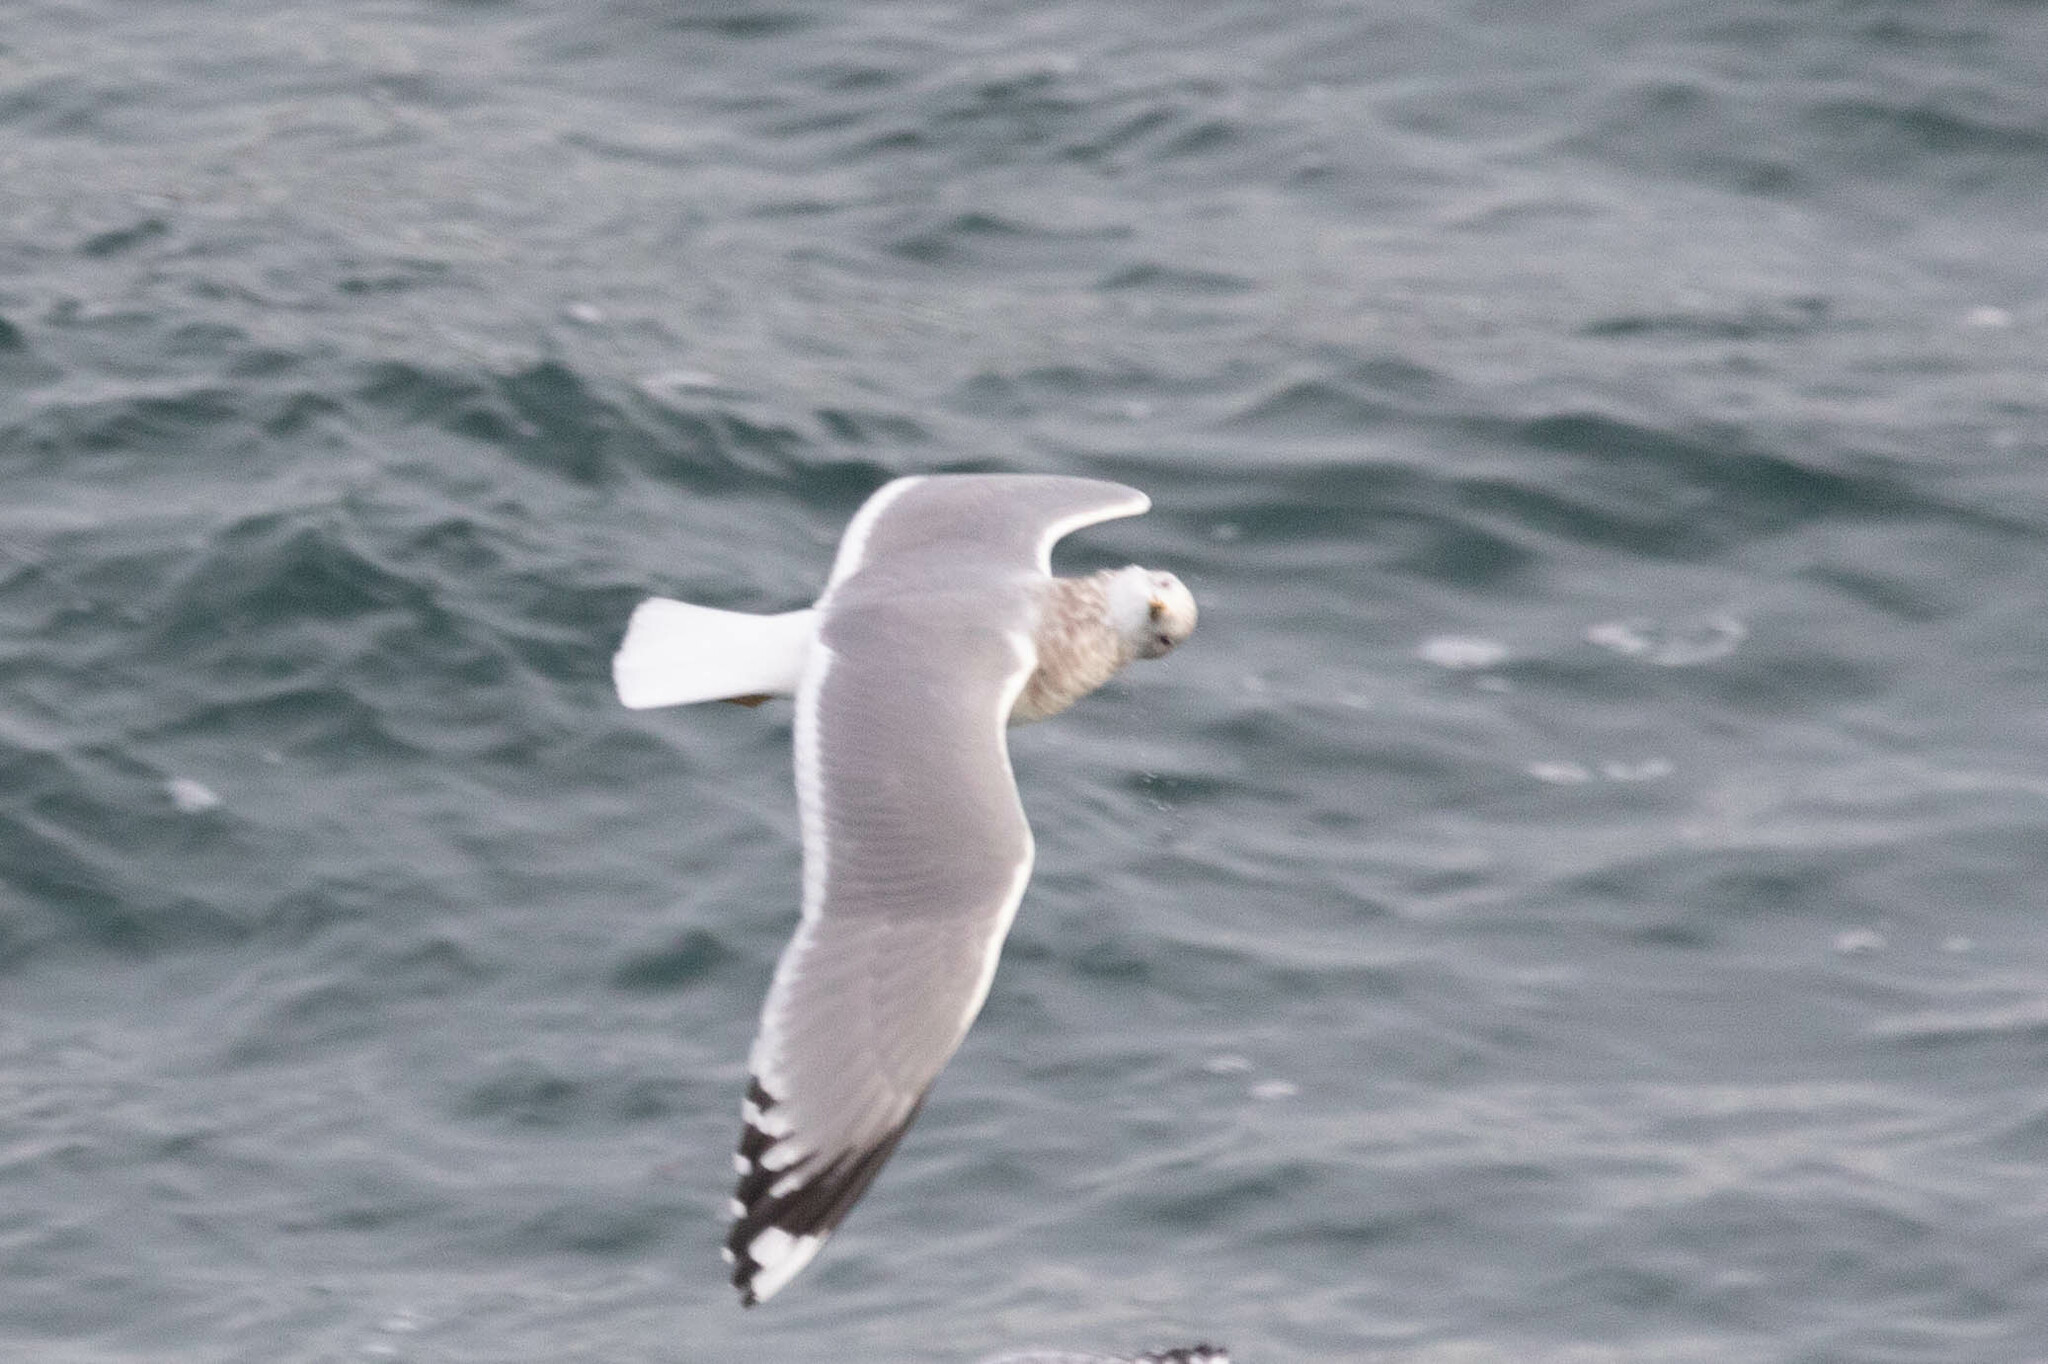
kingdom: Animalia
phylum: Chordata
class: Aves
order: Charadriiformes
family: Laridae
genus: Larus
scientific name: Larus brachyrhynchus
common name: Short-billed gull
